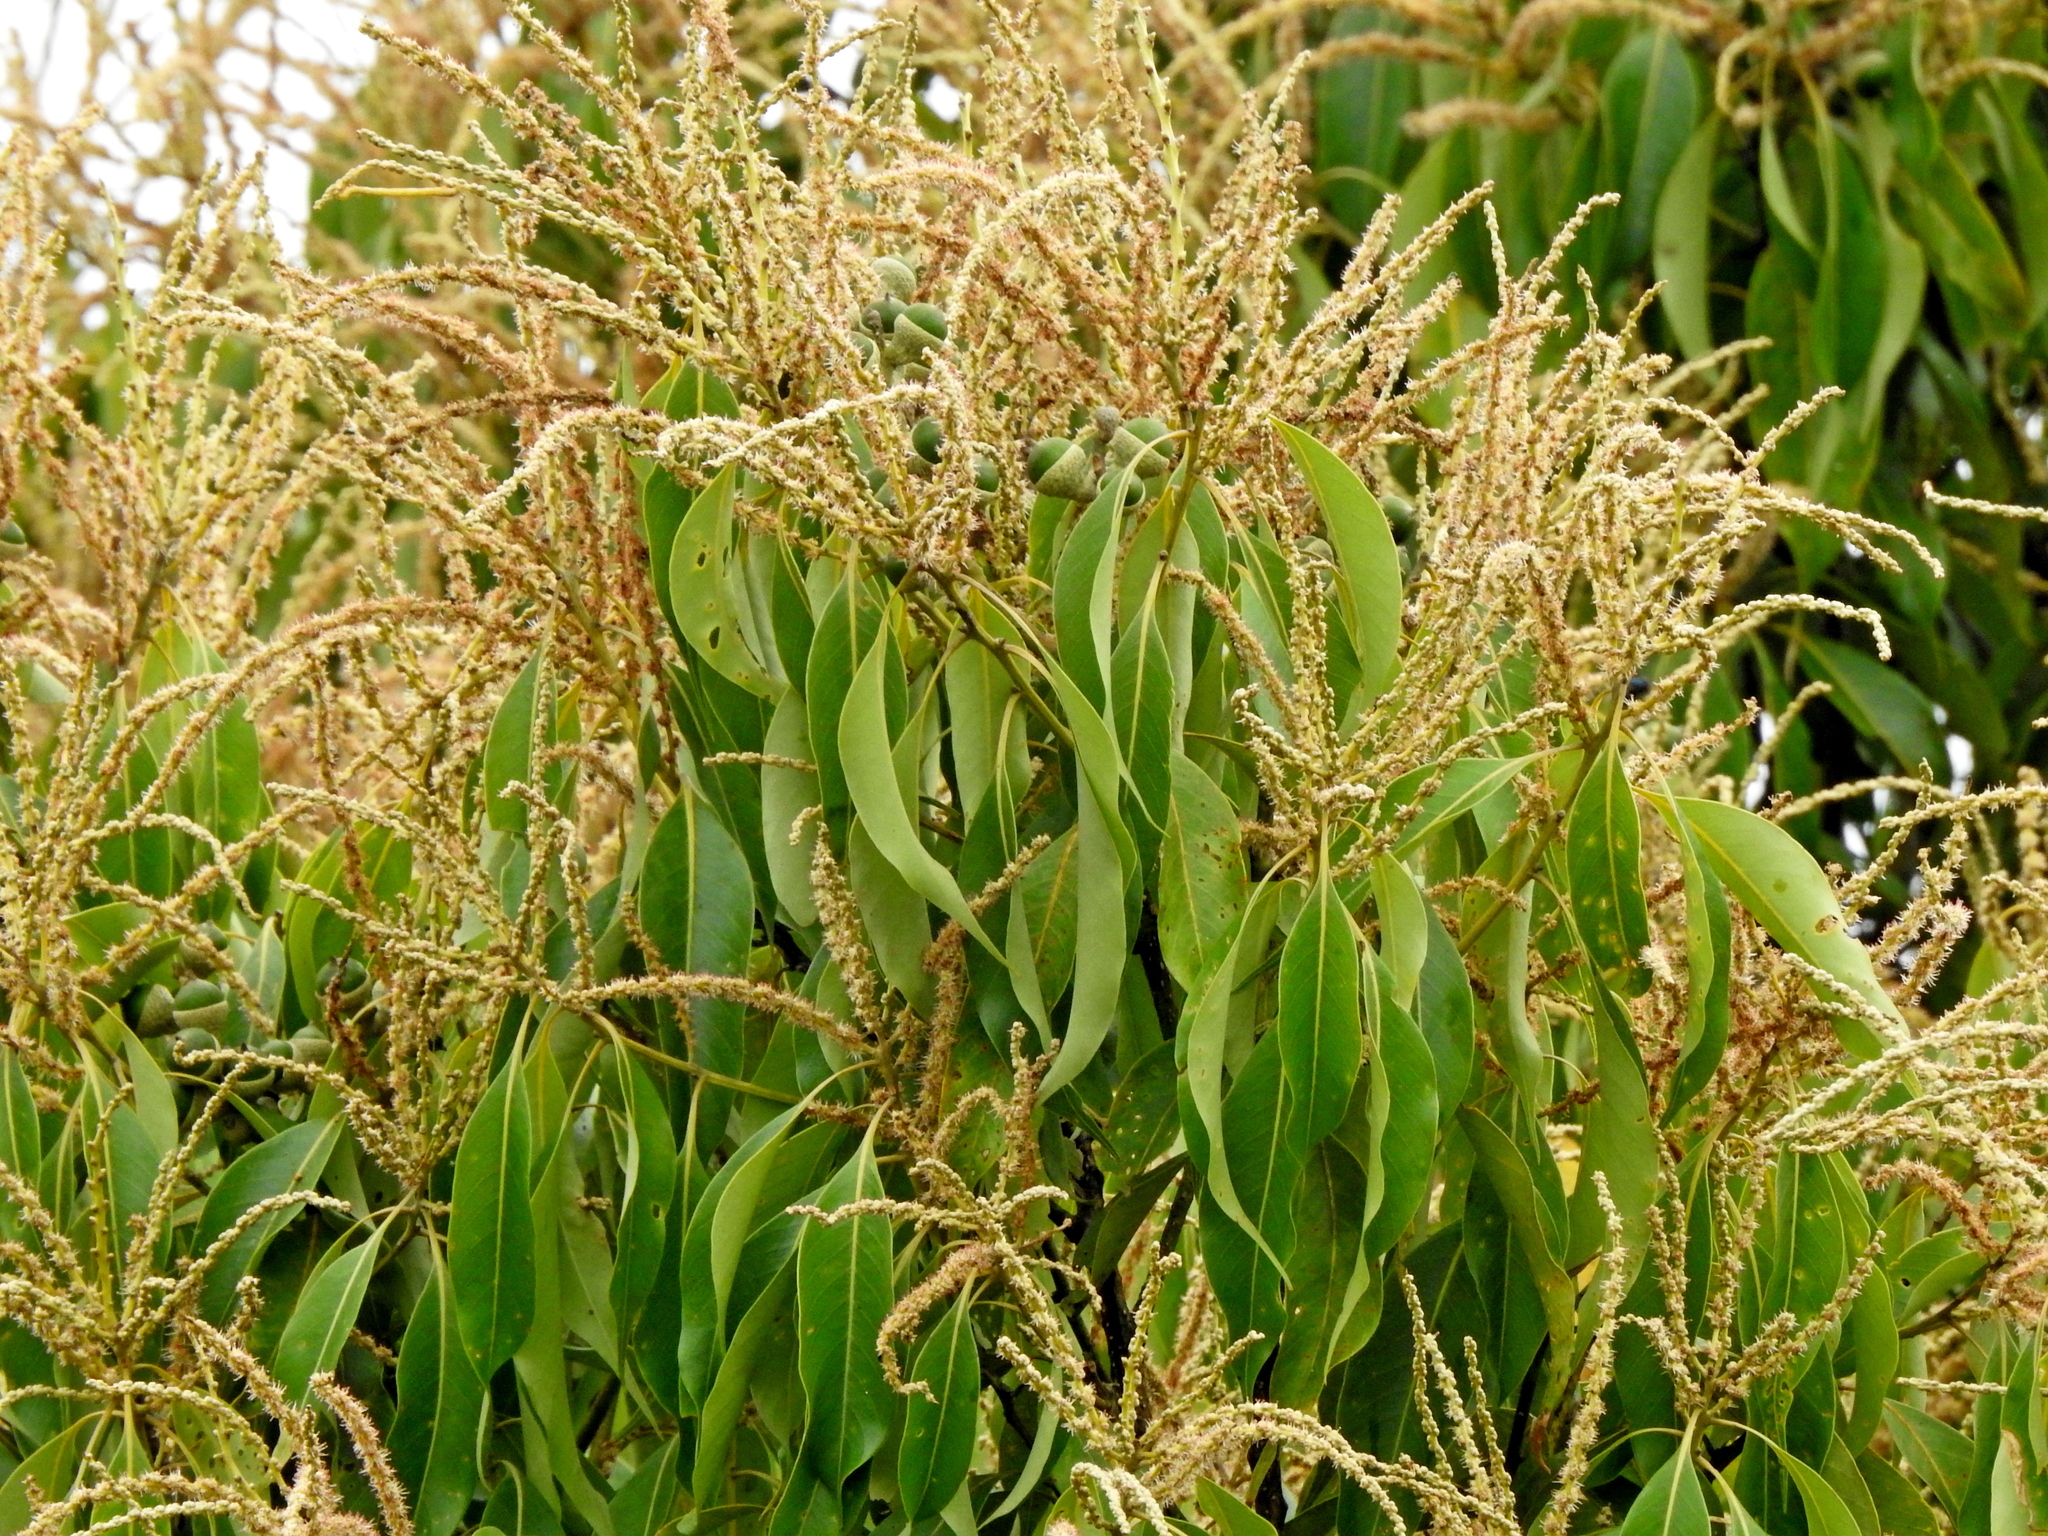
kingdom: Plantae
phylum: Tracheophyta
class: Magnoliopsida
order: Fagales
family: Fagaceae
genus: Lithocarpus
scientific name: Lithocarpus nantoensis
